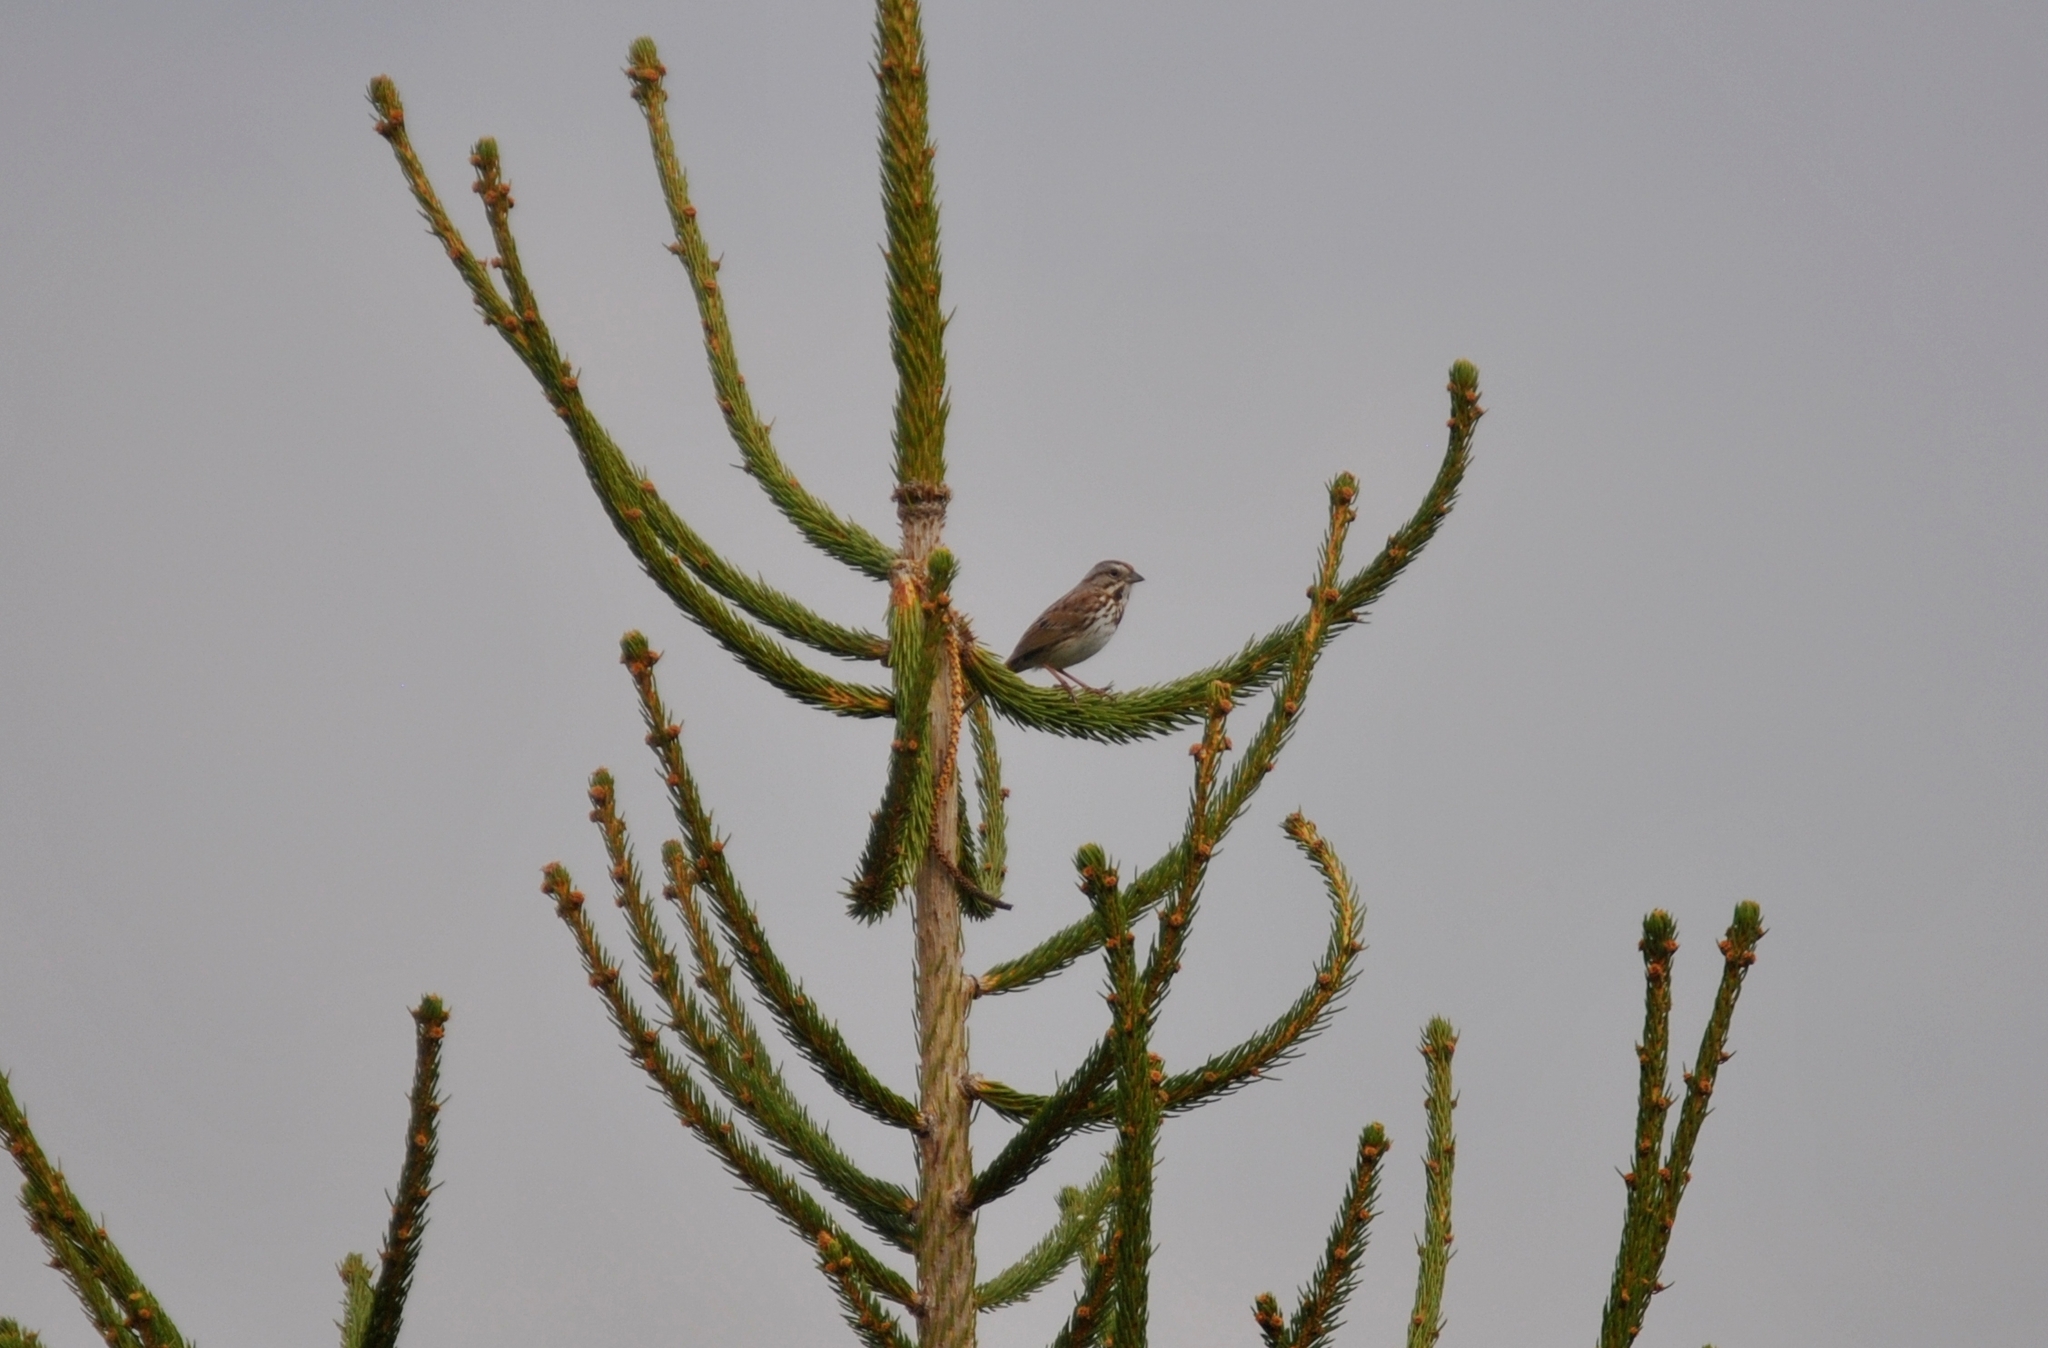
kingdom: Animalia
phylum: Chordata
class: Aves
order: Passeriformes
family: Passerellidae
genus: Melospiza
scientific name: Melospiza melodia
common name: Song sparrow
